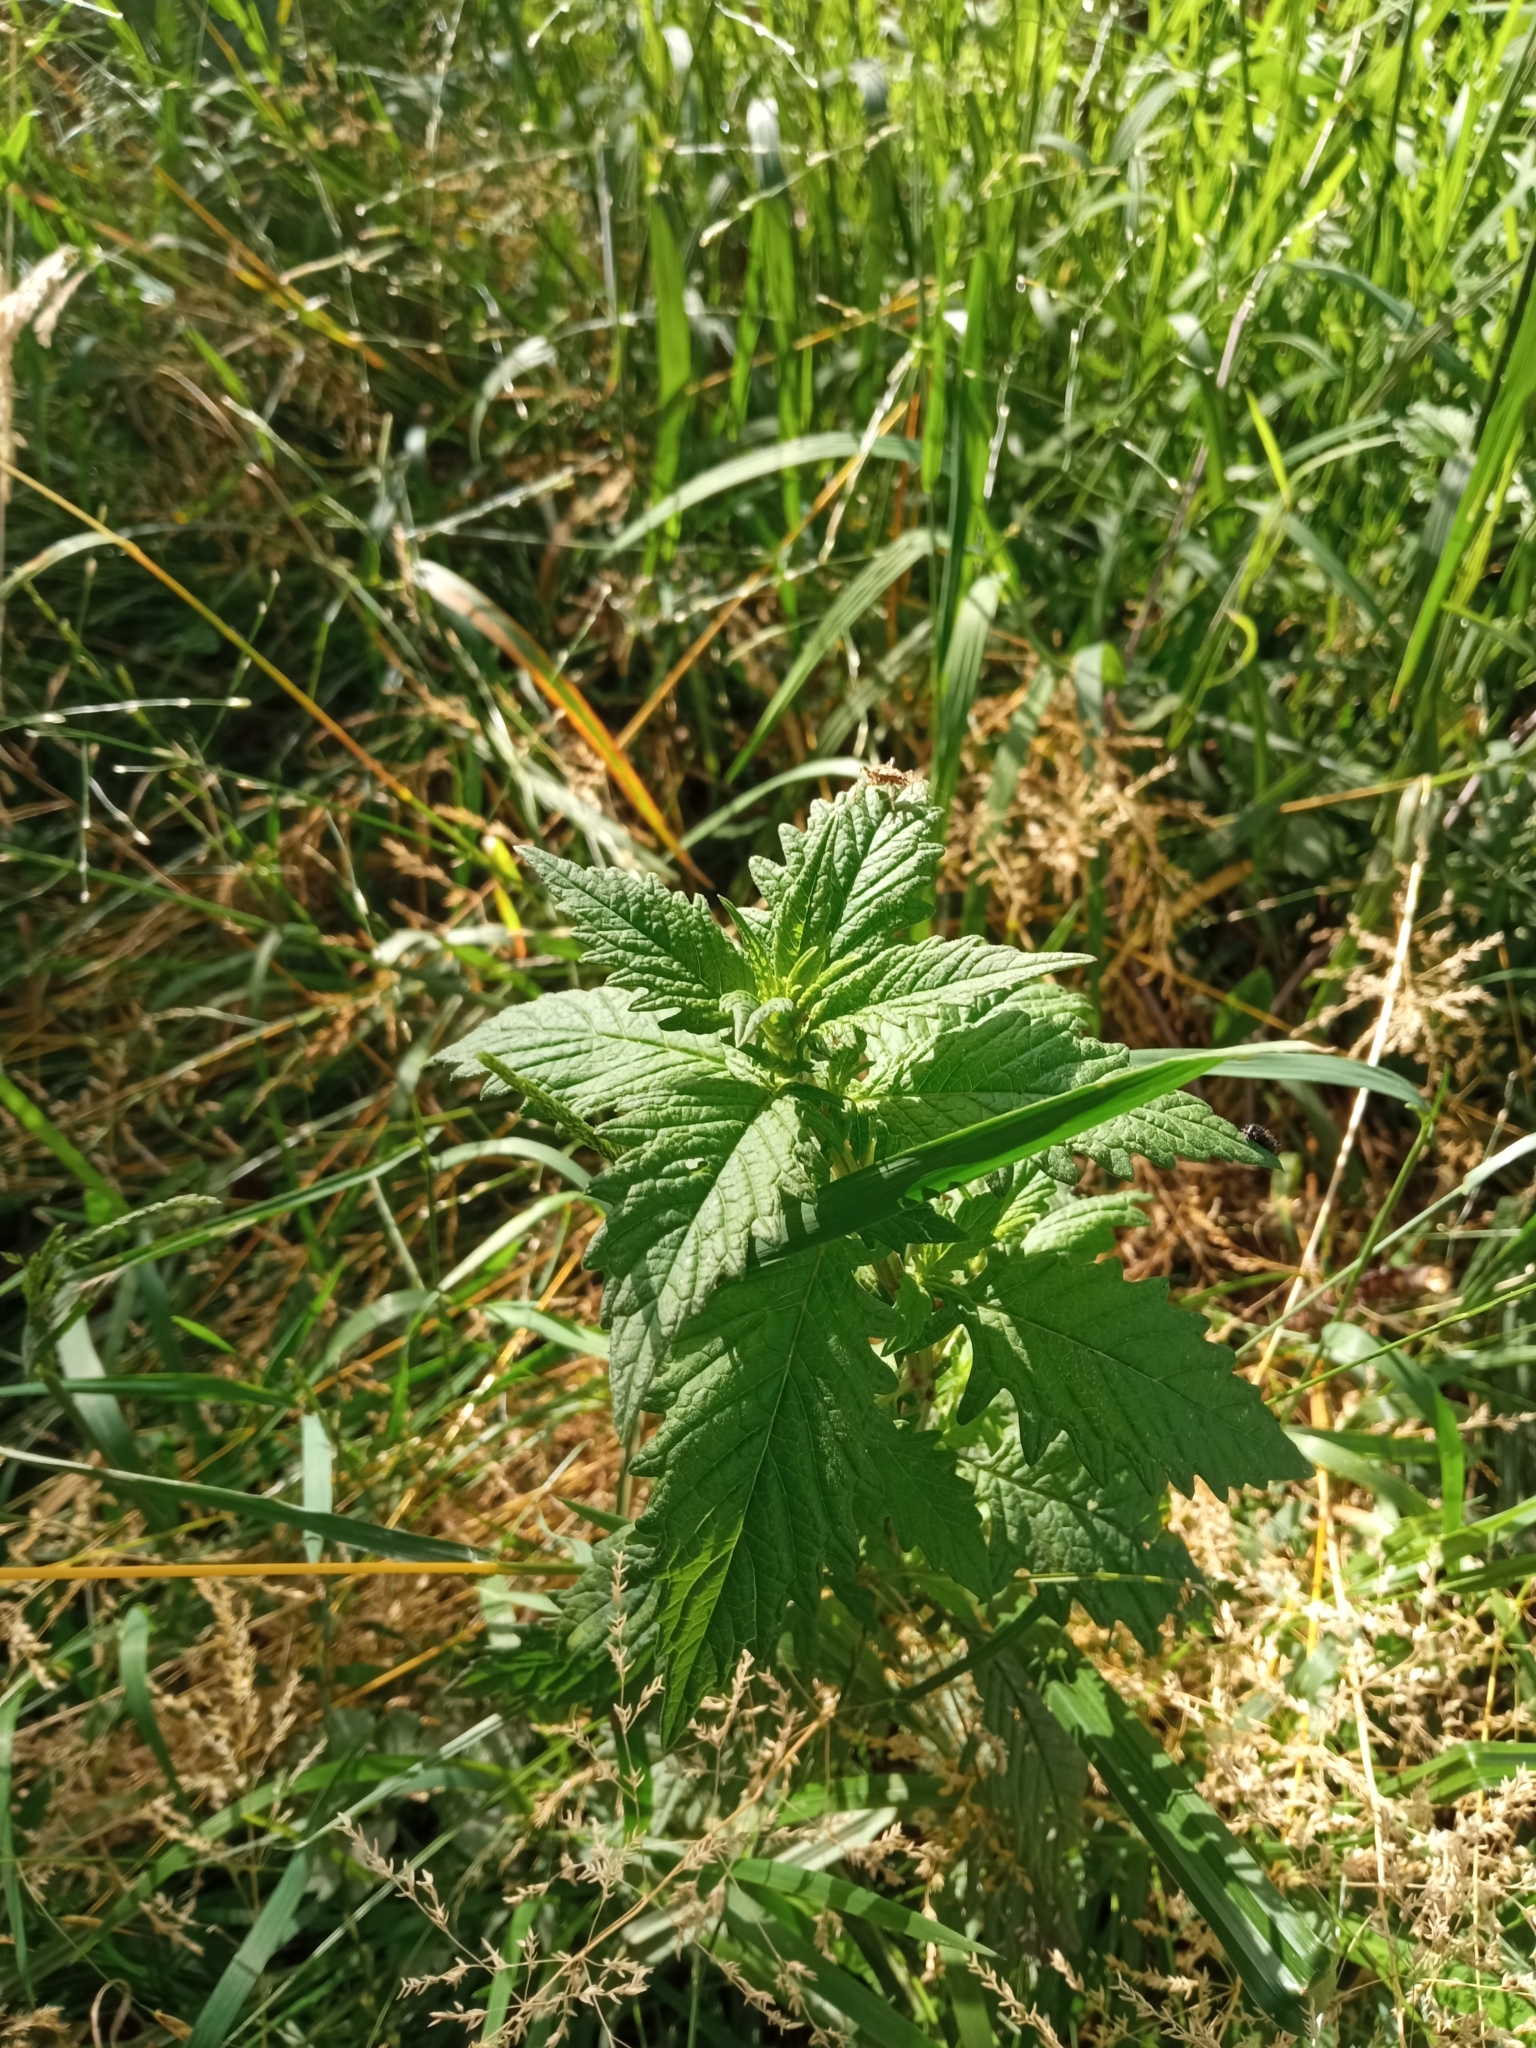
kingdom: Plantae
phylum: Tracheophyta
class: Magnoliopsida
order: Lamiales
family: Lamiaceae
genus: Lycopus
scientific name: Lycopus europaeus
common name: European bugleweed
